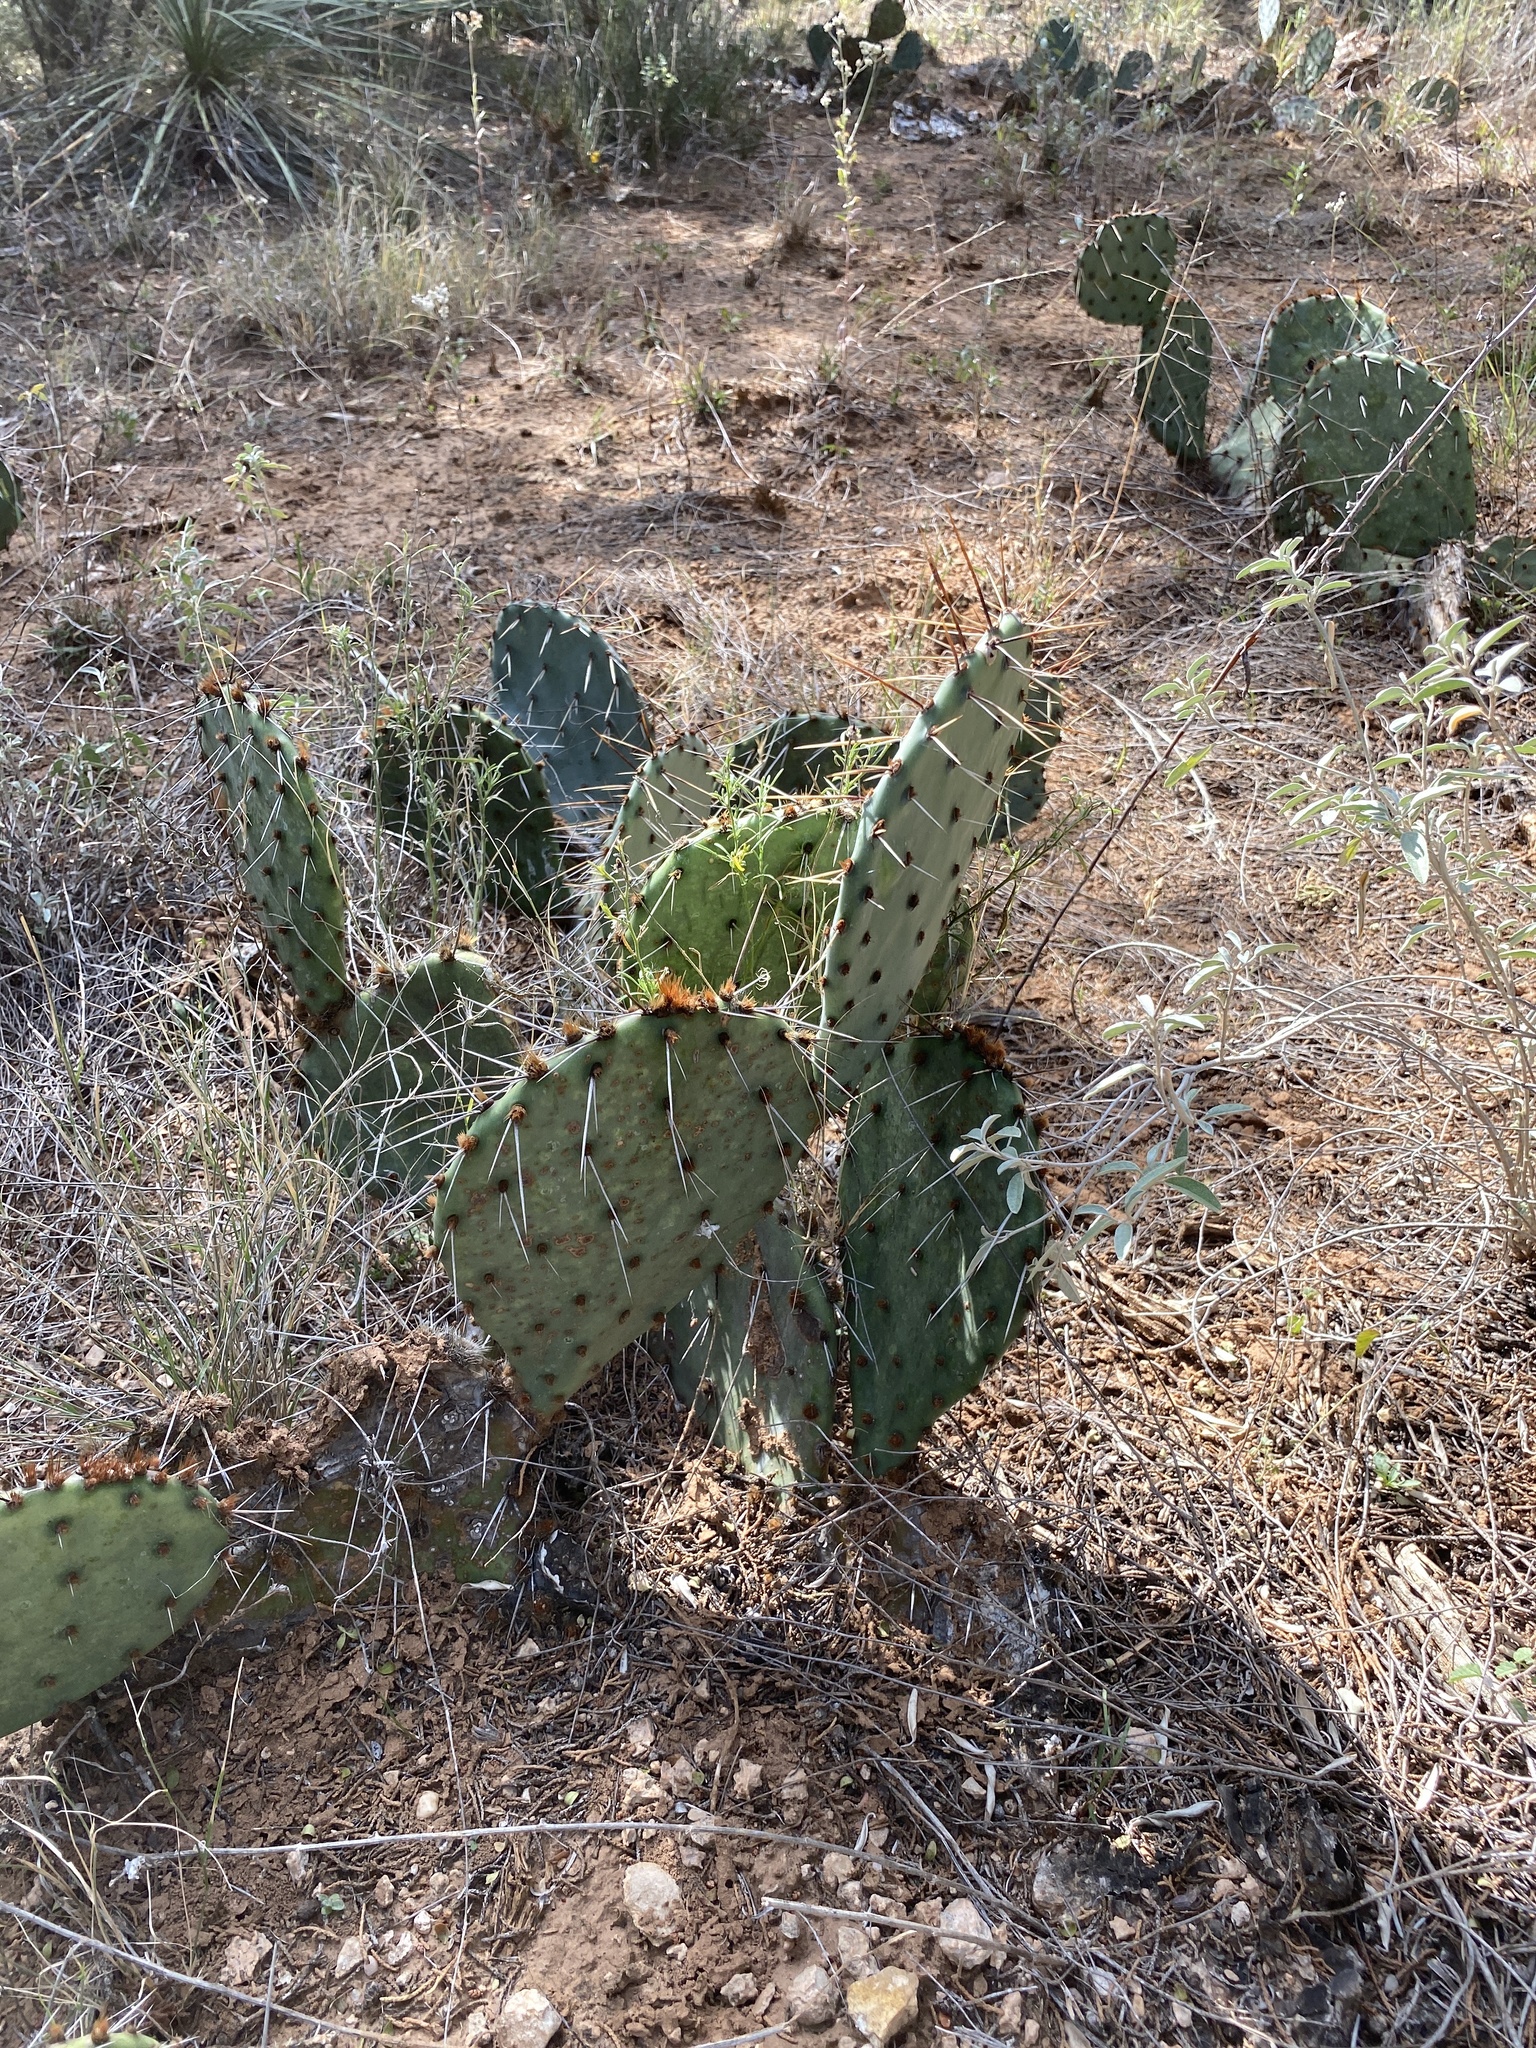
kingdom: Plantae
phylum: Tracheophyta
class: Magnoliopsida
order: Caryophyllales
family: Cactaceae
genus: Opuntia
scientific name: Opuntia engelmannii
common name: Cactus-apple
